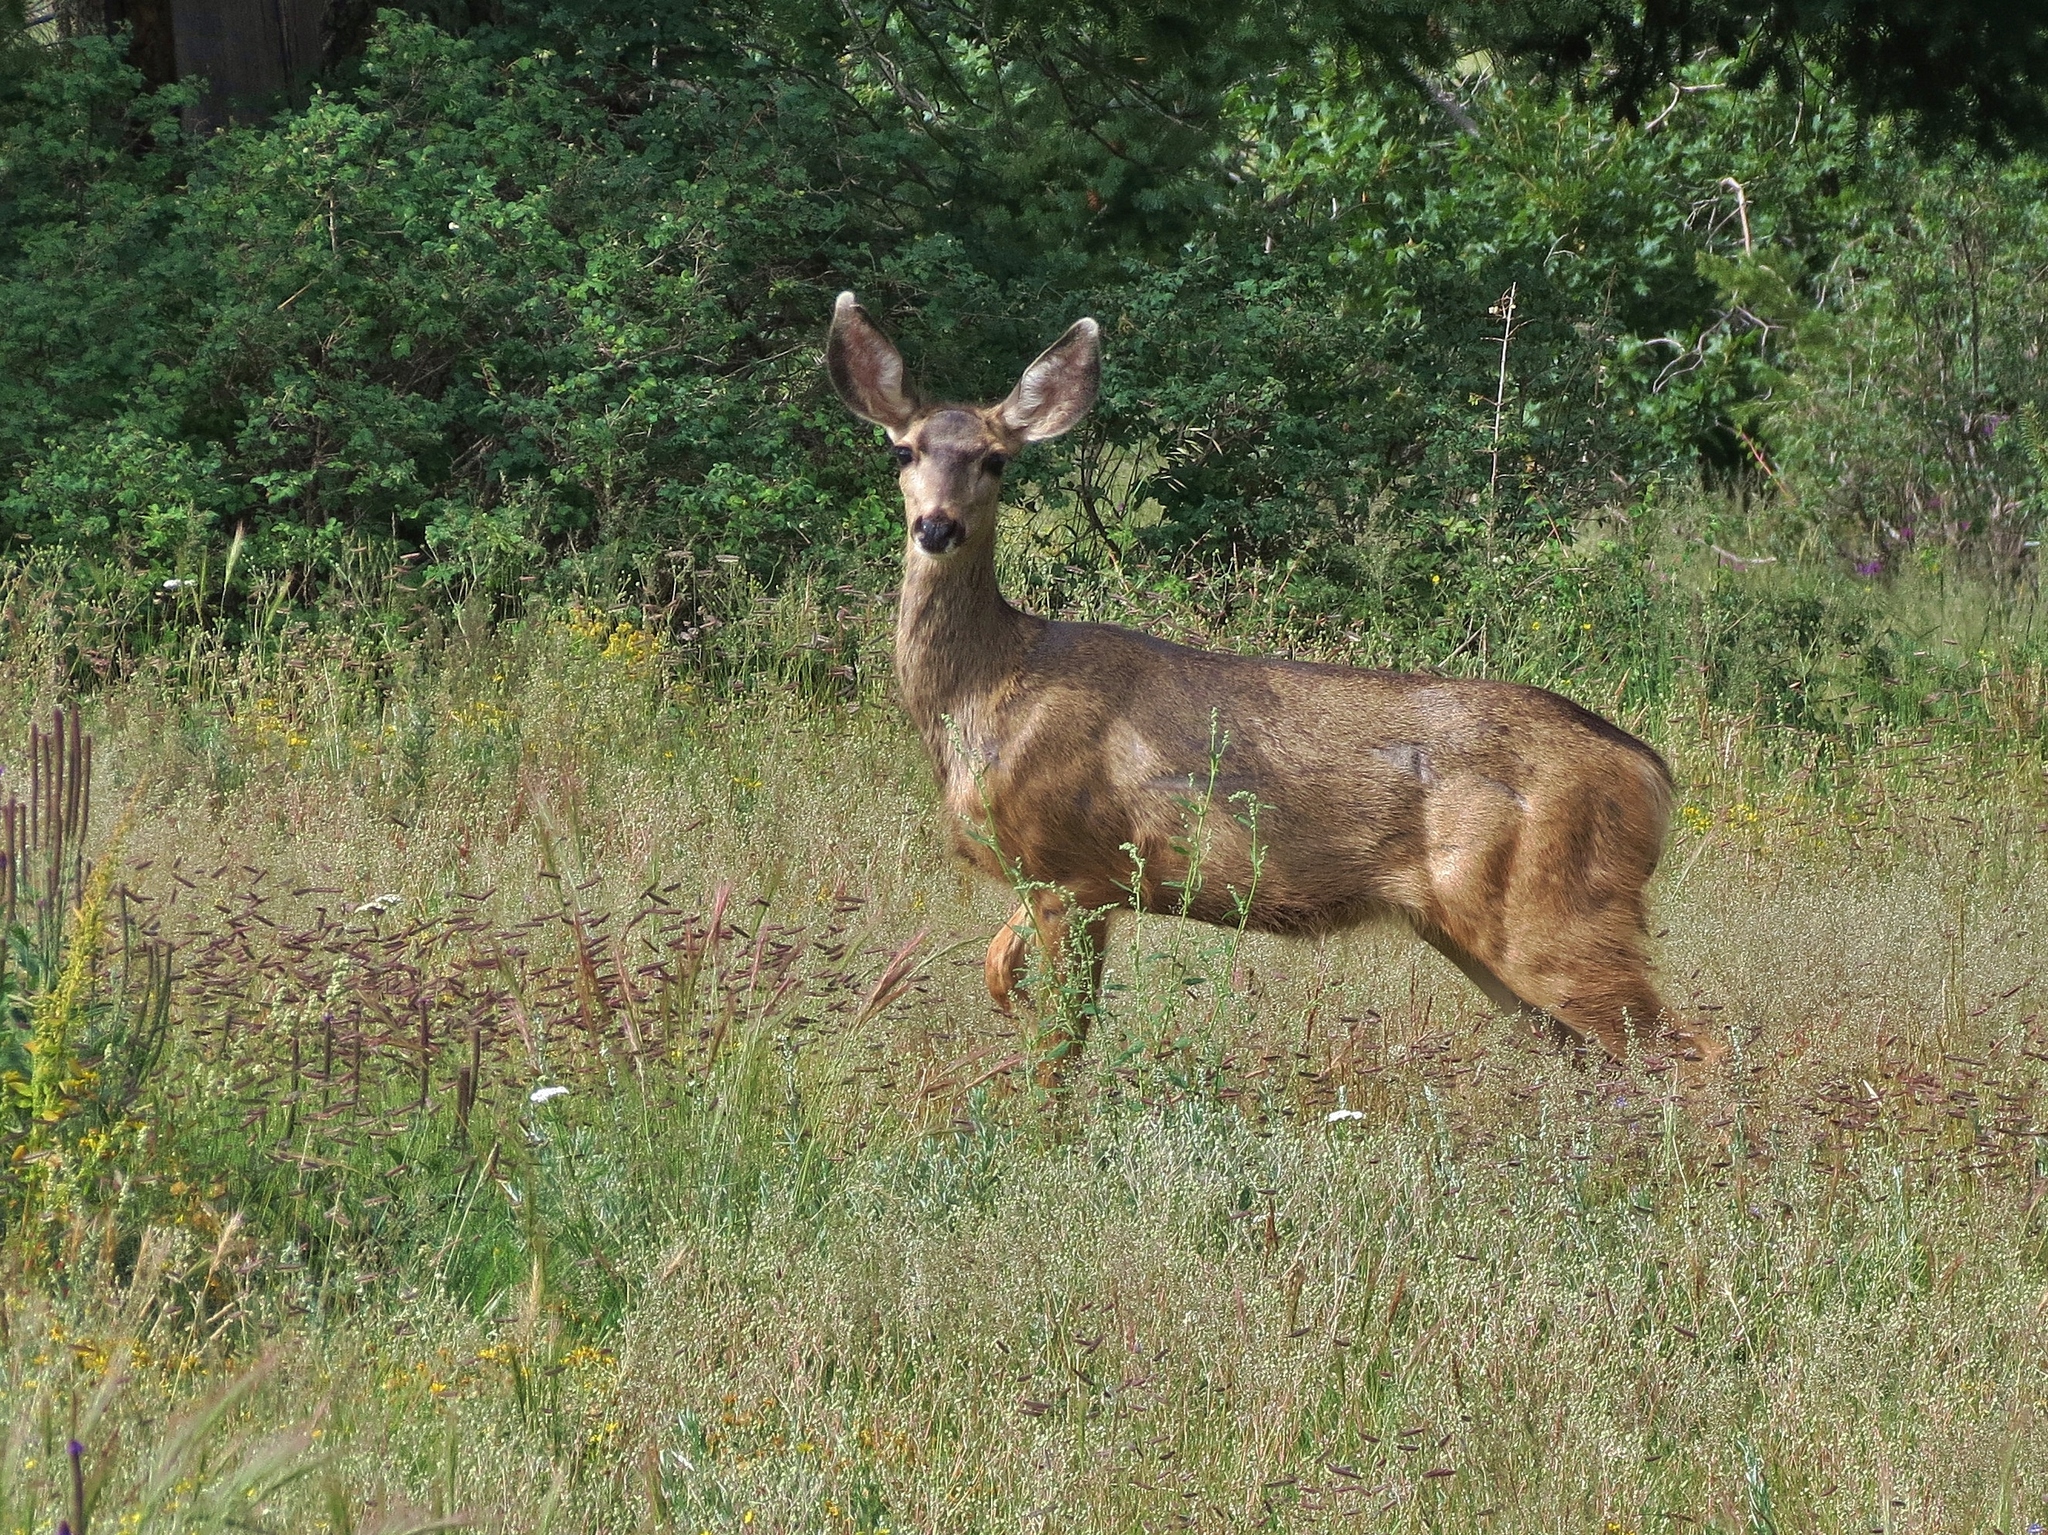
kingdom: Animalia
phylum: Chordata
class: Mammalia
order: Artiodactyla
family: Cervidae
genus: Odocoileus
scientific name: Odocoileus hemionus
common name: Mule deer
